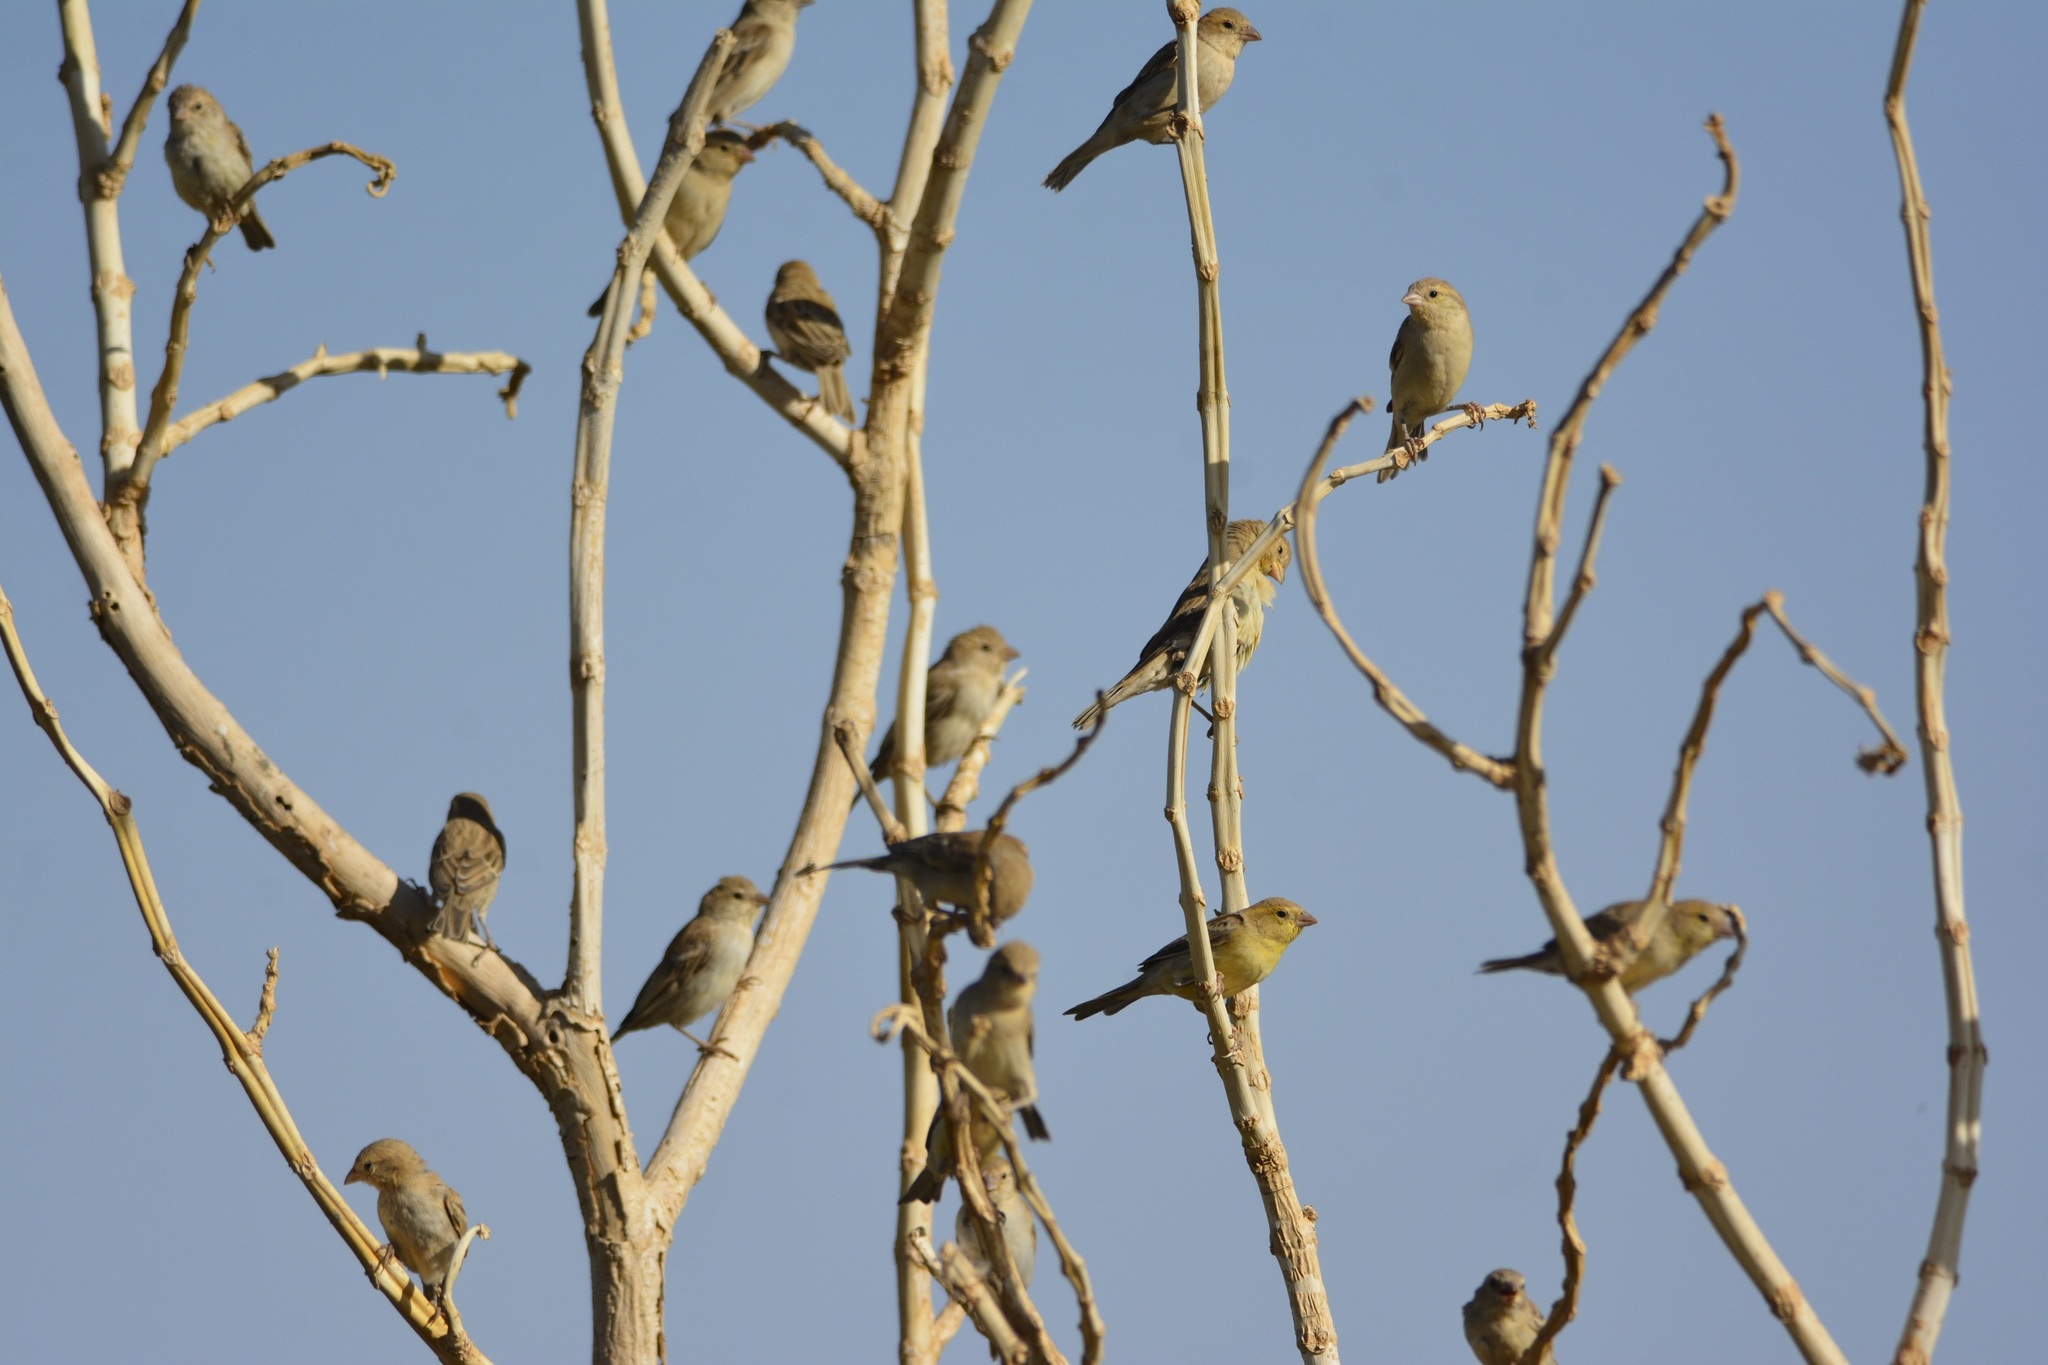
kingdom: Animalia
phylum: Chordata
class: Aves
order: Passeriformes
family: Passeridae
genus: Passer
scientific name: Passer luteus
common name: Sudan golden sparrow
